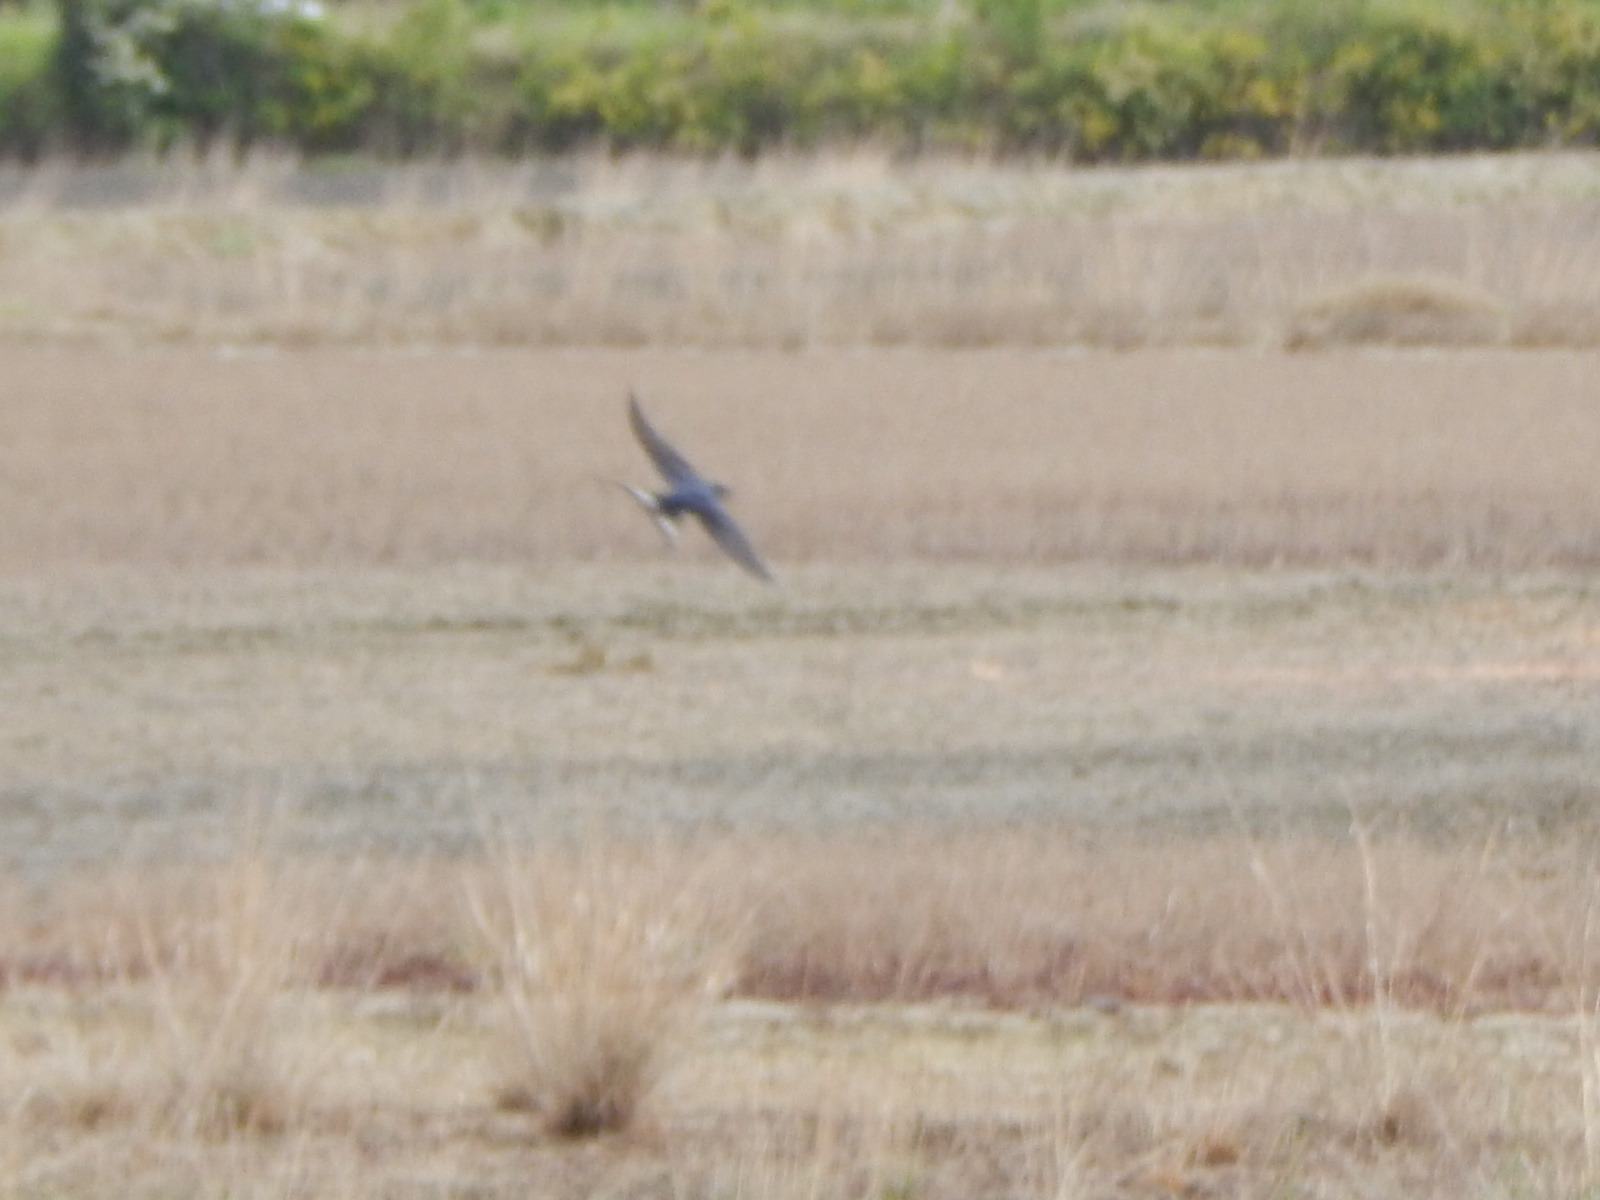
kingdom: Animalia
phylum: Chordata
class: Aves
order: Passeriformes
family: Hirundinidae
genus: Hirundo
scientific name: Hirundo rustica
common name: Barn swallow
